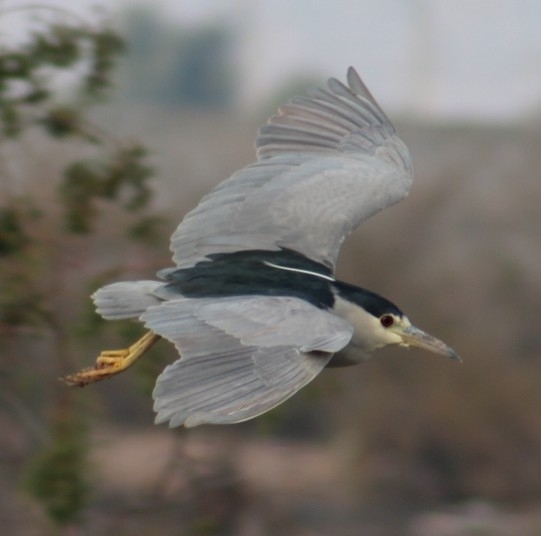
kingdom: Animalia
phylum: Chordata
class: Aves
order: Pelecaniformes
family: Ardeidae
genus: Nycticorax
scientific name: Nycticorax nycticorax
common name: Black-crowned night heron
